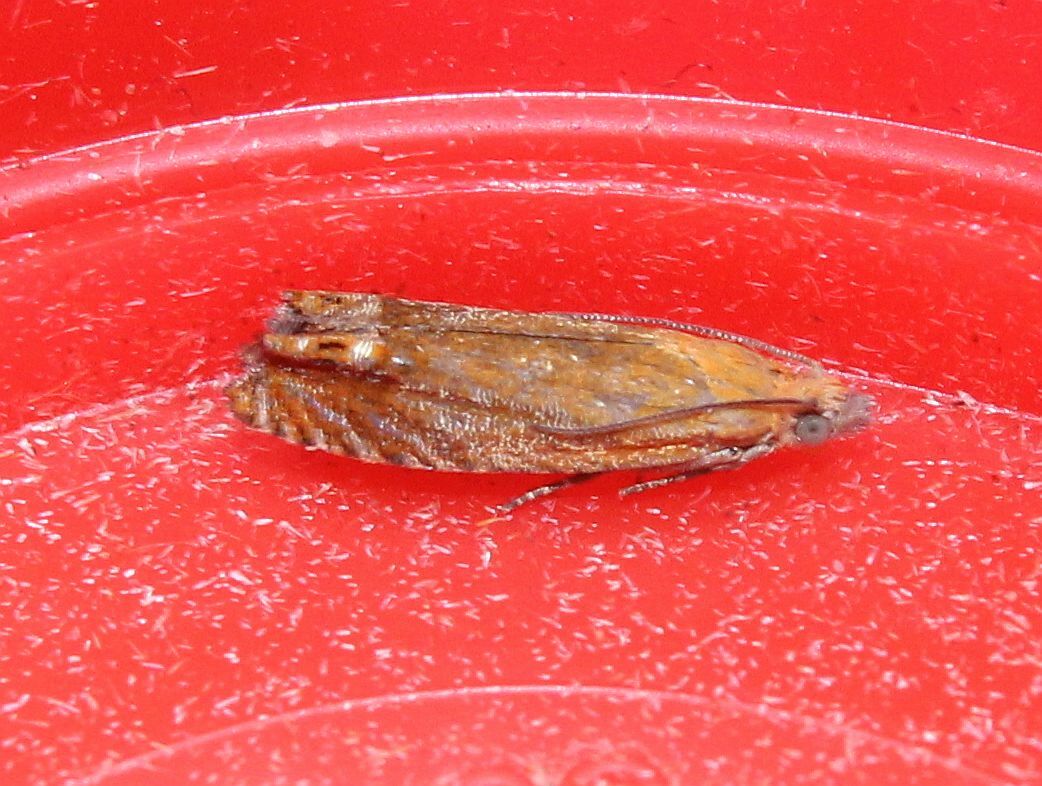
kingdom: Animalia
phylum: Arthropoda
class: Insecta
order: Lepidoptera
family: Tortricidae
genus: Lathronympha
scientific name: Lathronympha strigana
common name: Red piercer
